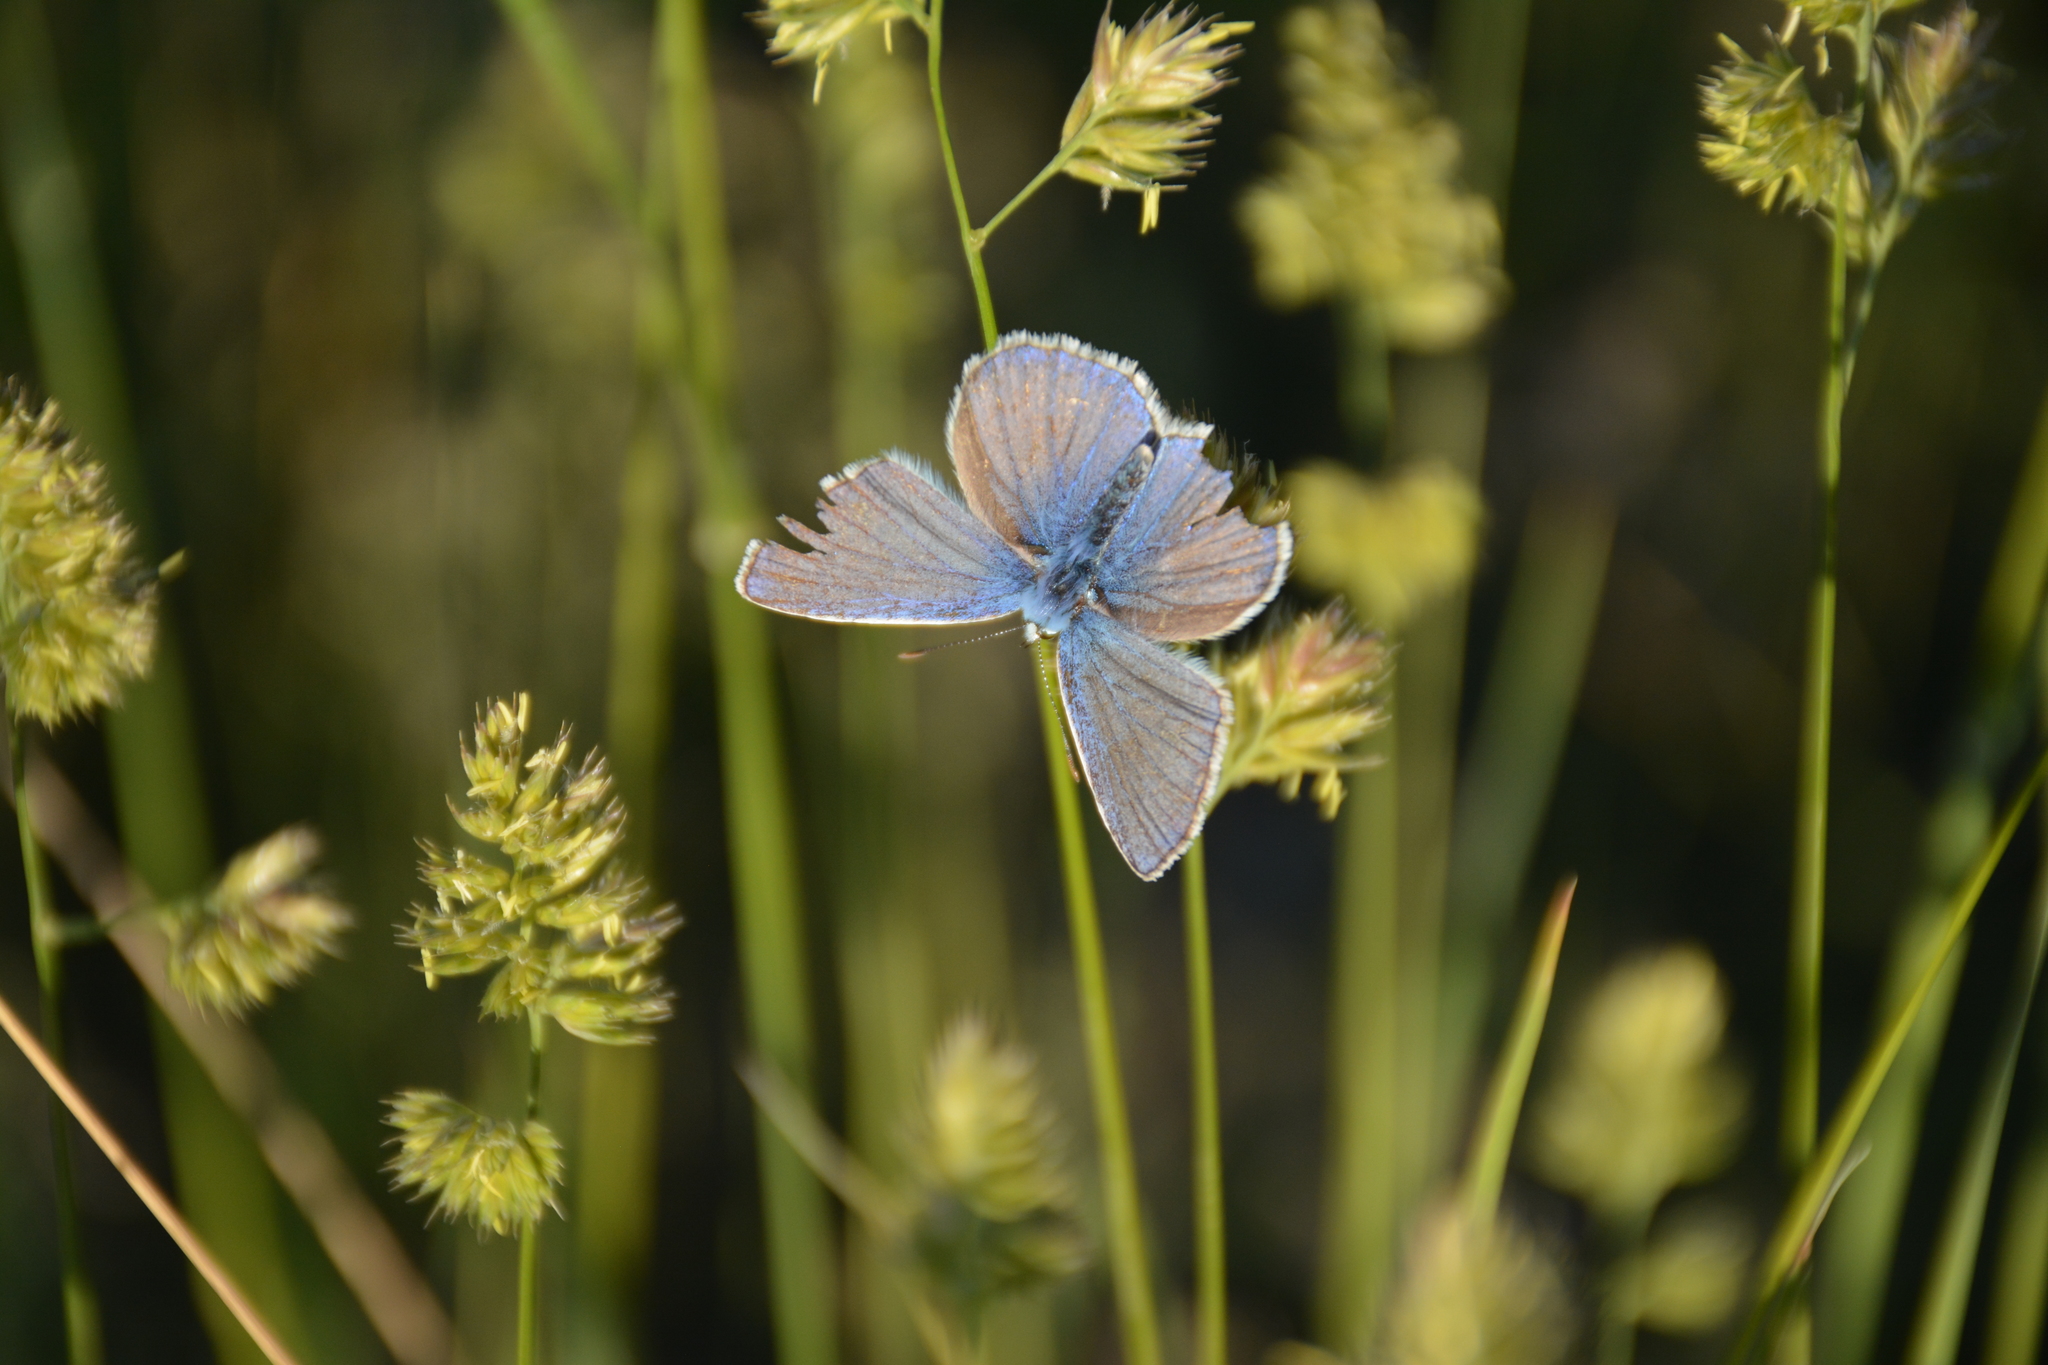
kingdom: Animalia
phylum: Arthropoda
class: Insecta
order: Lepidoptera
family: Lycaenidae
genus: Polyommatus
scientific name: Polyommatus icarus
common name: Common blue
